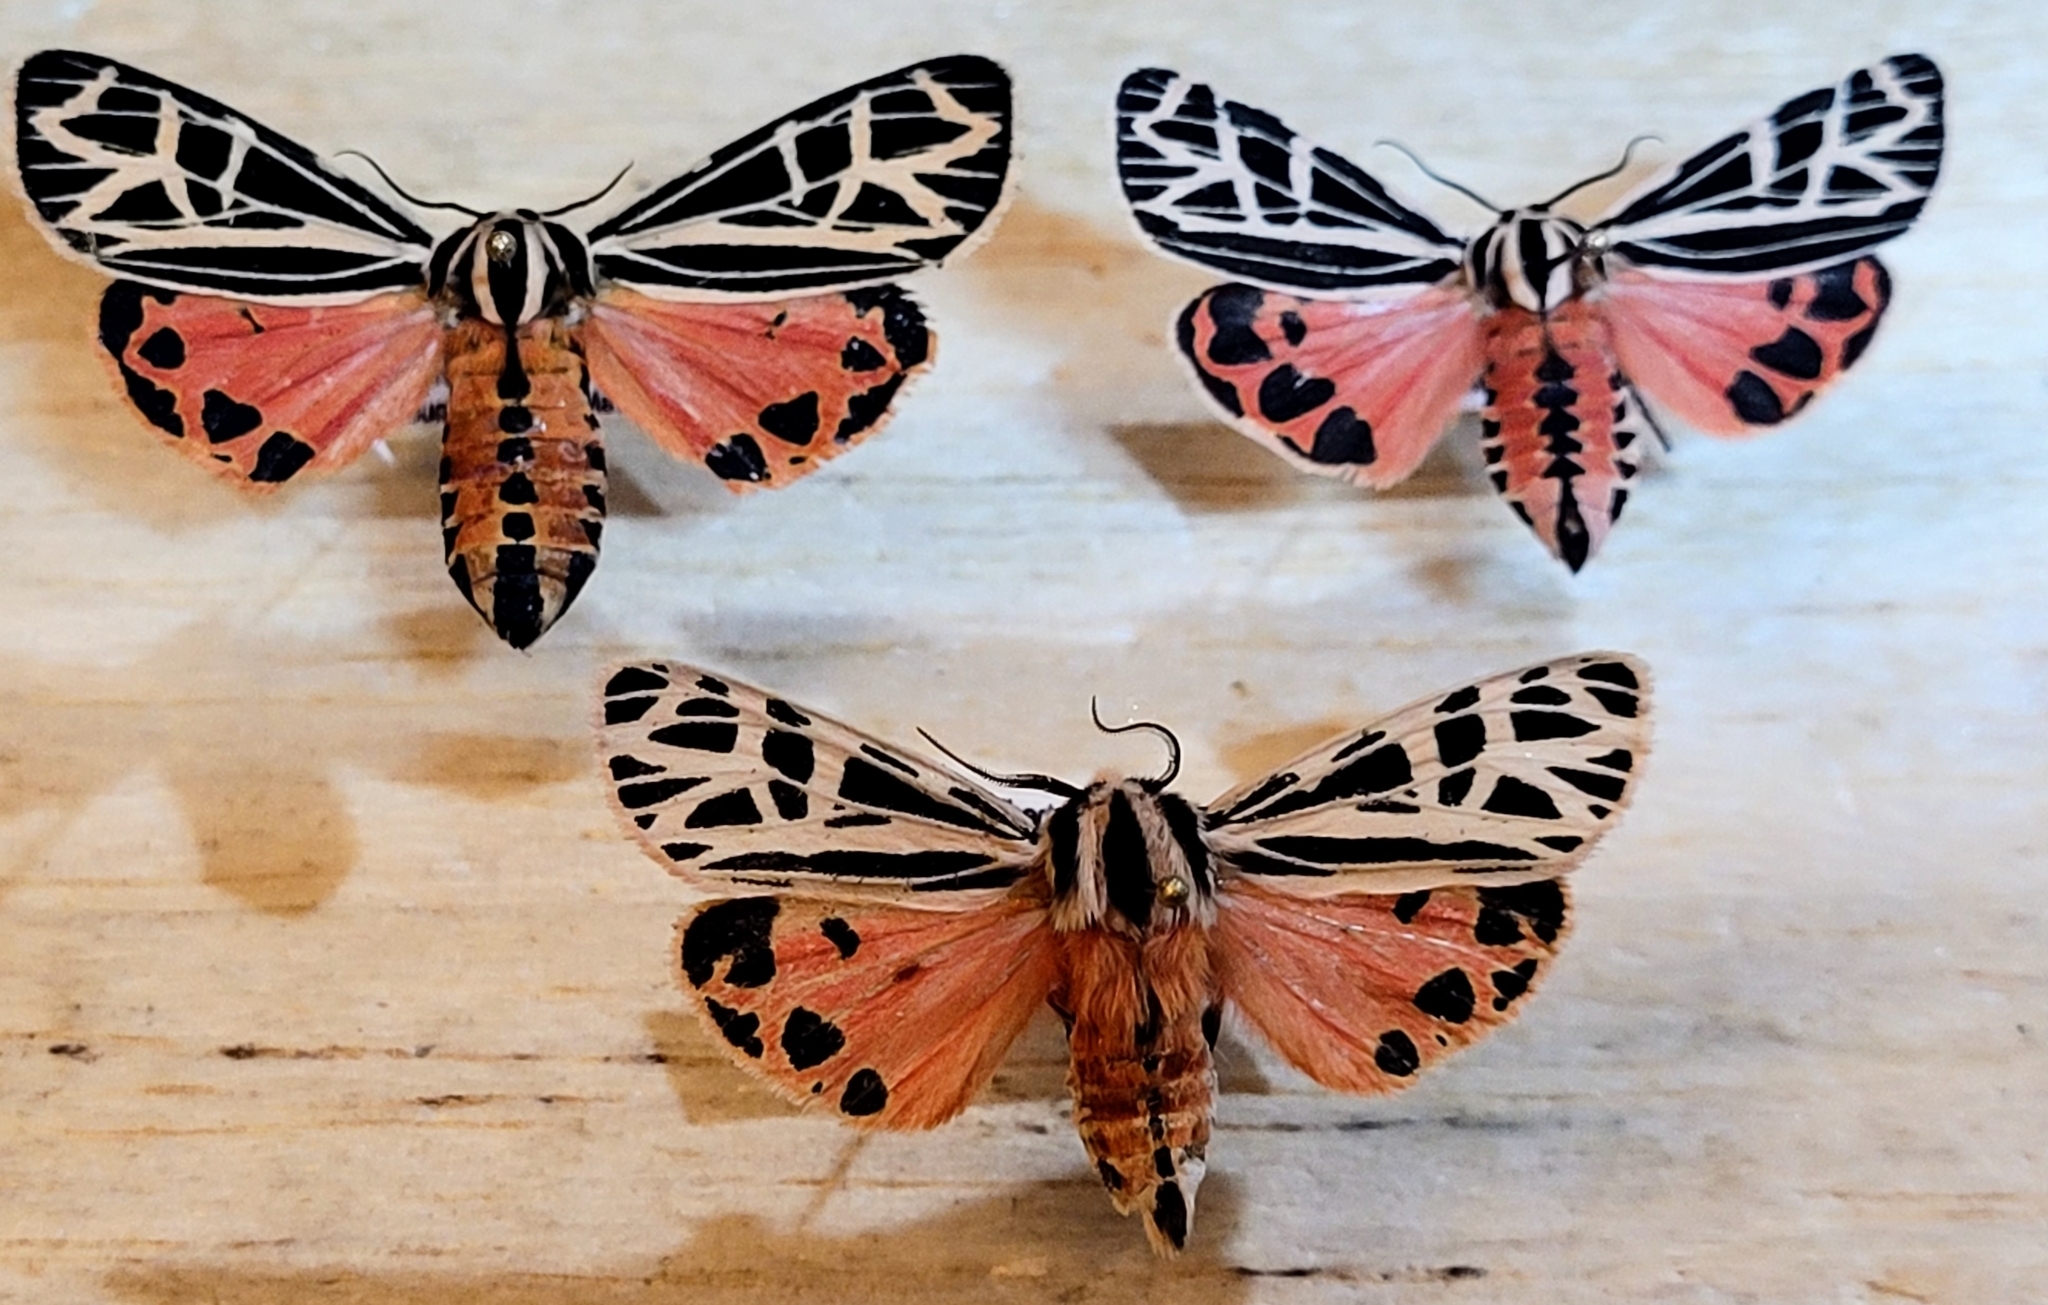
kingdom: Animalia
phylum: Arthropoda
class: Insecta
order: Lepidoptera
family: Erebidae
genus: Apantesis
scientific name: Apantesis
